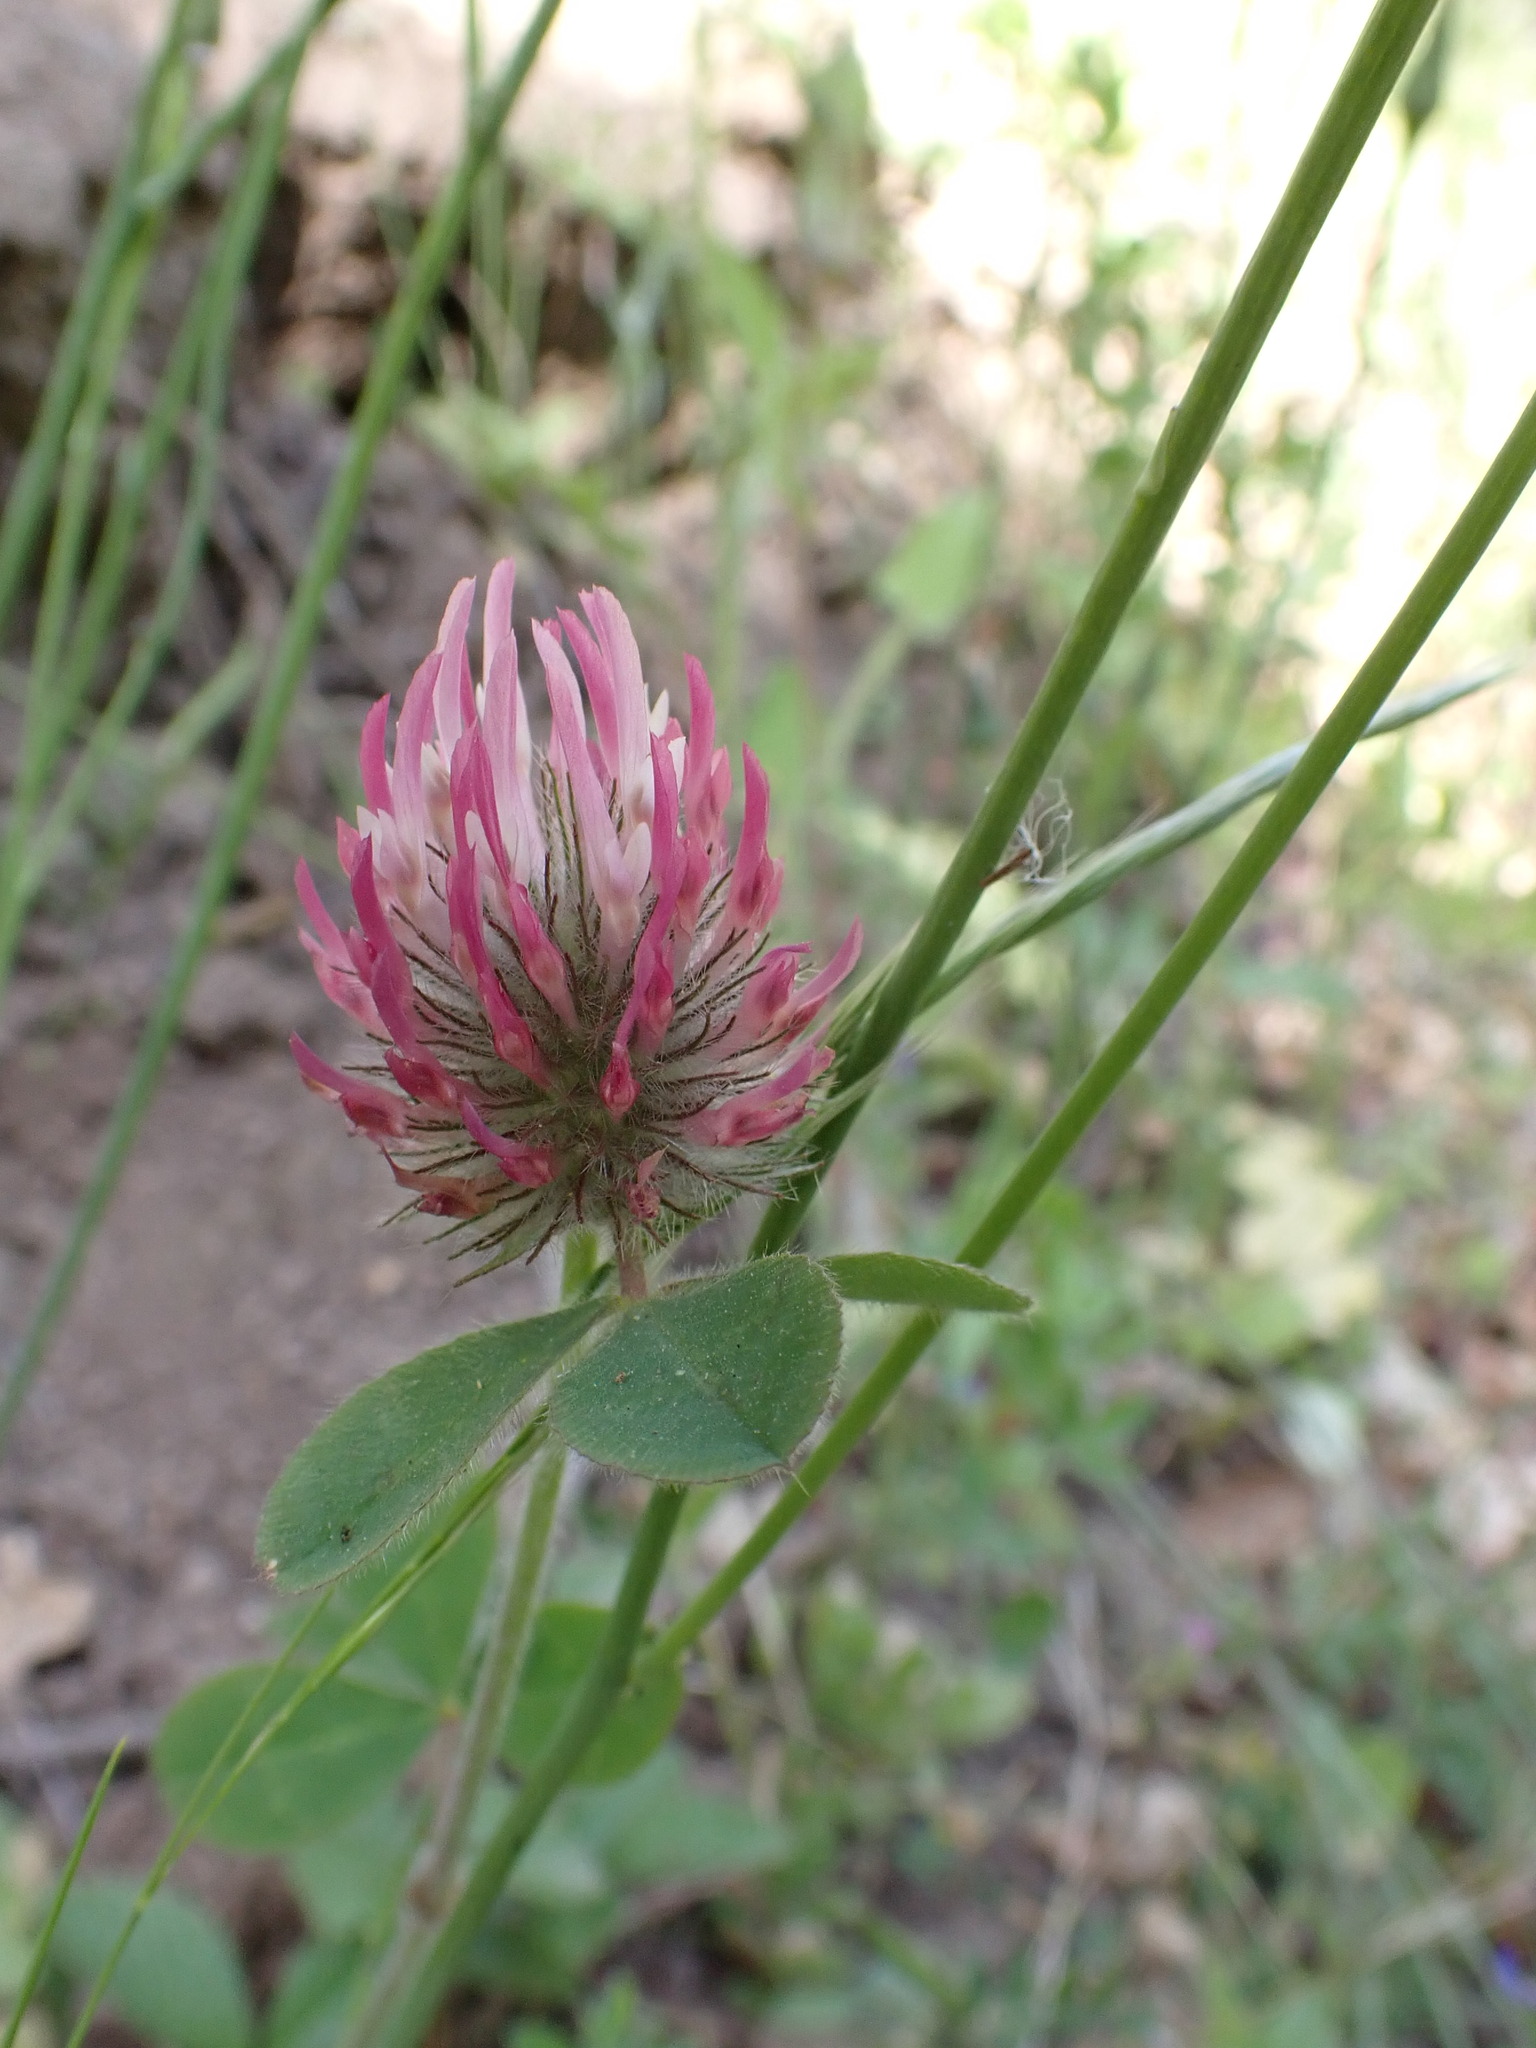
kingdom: Plantae
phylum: Tracheophyta
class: Magnoliopsida
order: Fabales
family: Fabaceae
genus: Trifolium
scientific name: Trifolium hirtum
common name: Rose clover
